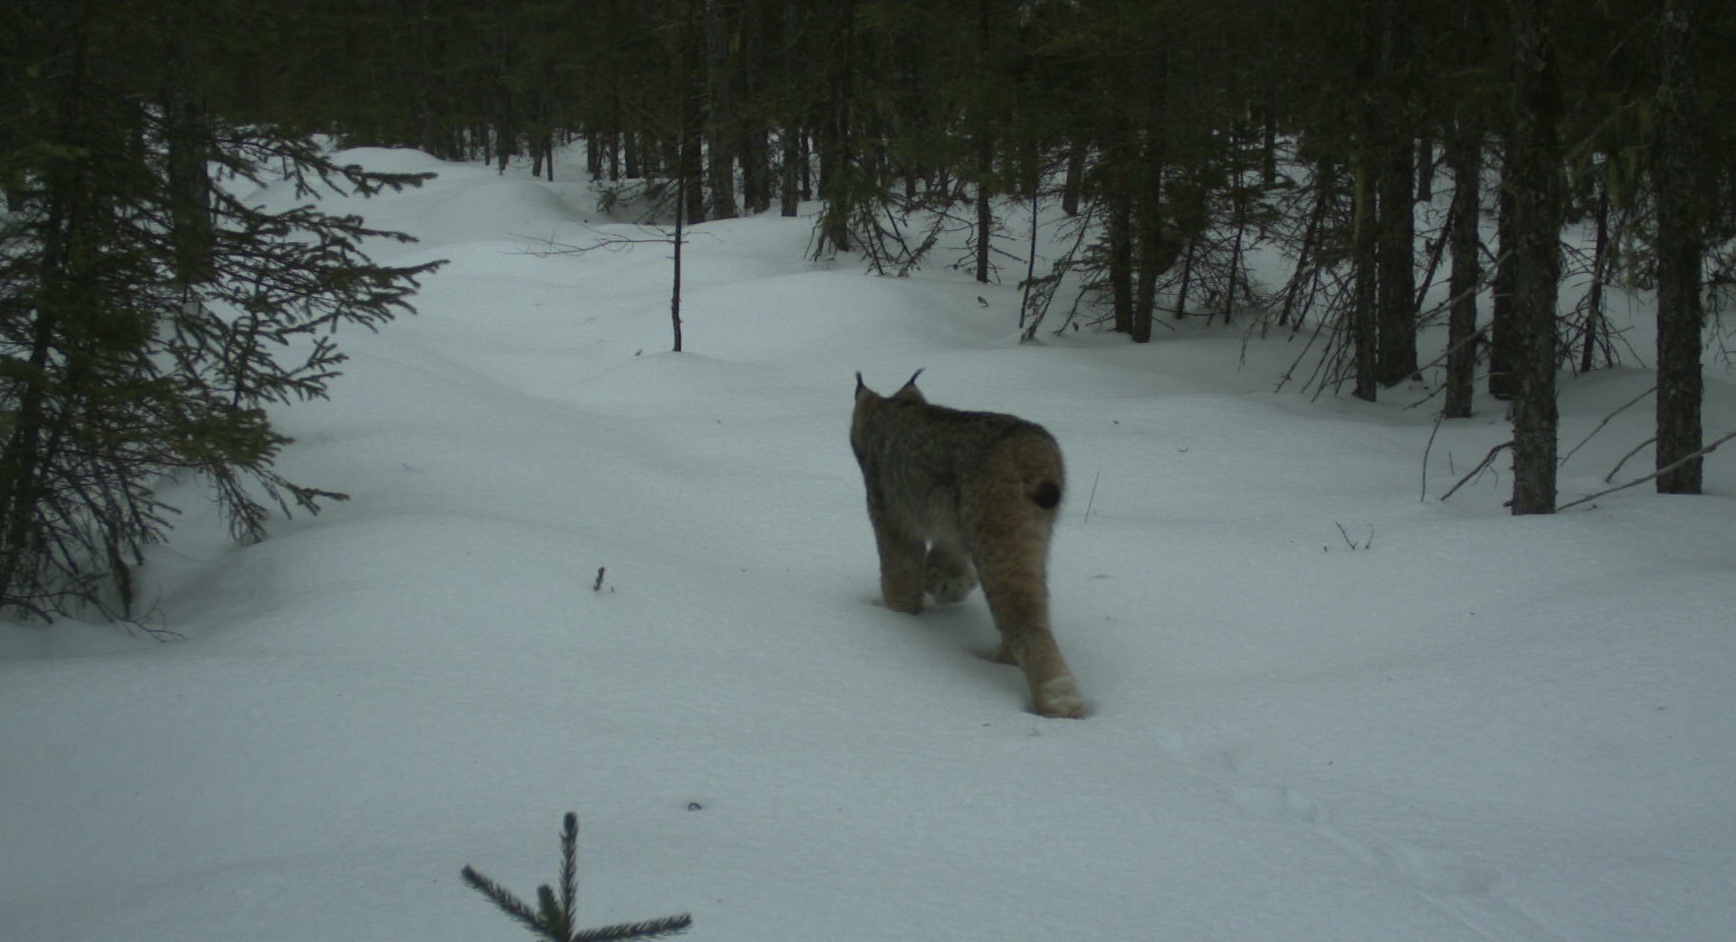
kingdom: Animalia
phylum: Chordata
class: Mammalia
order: Carnivora
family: Felidae
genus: Lynx
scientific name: Lynx canadensis
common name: Canadian lynx
